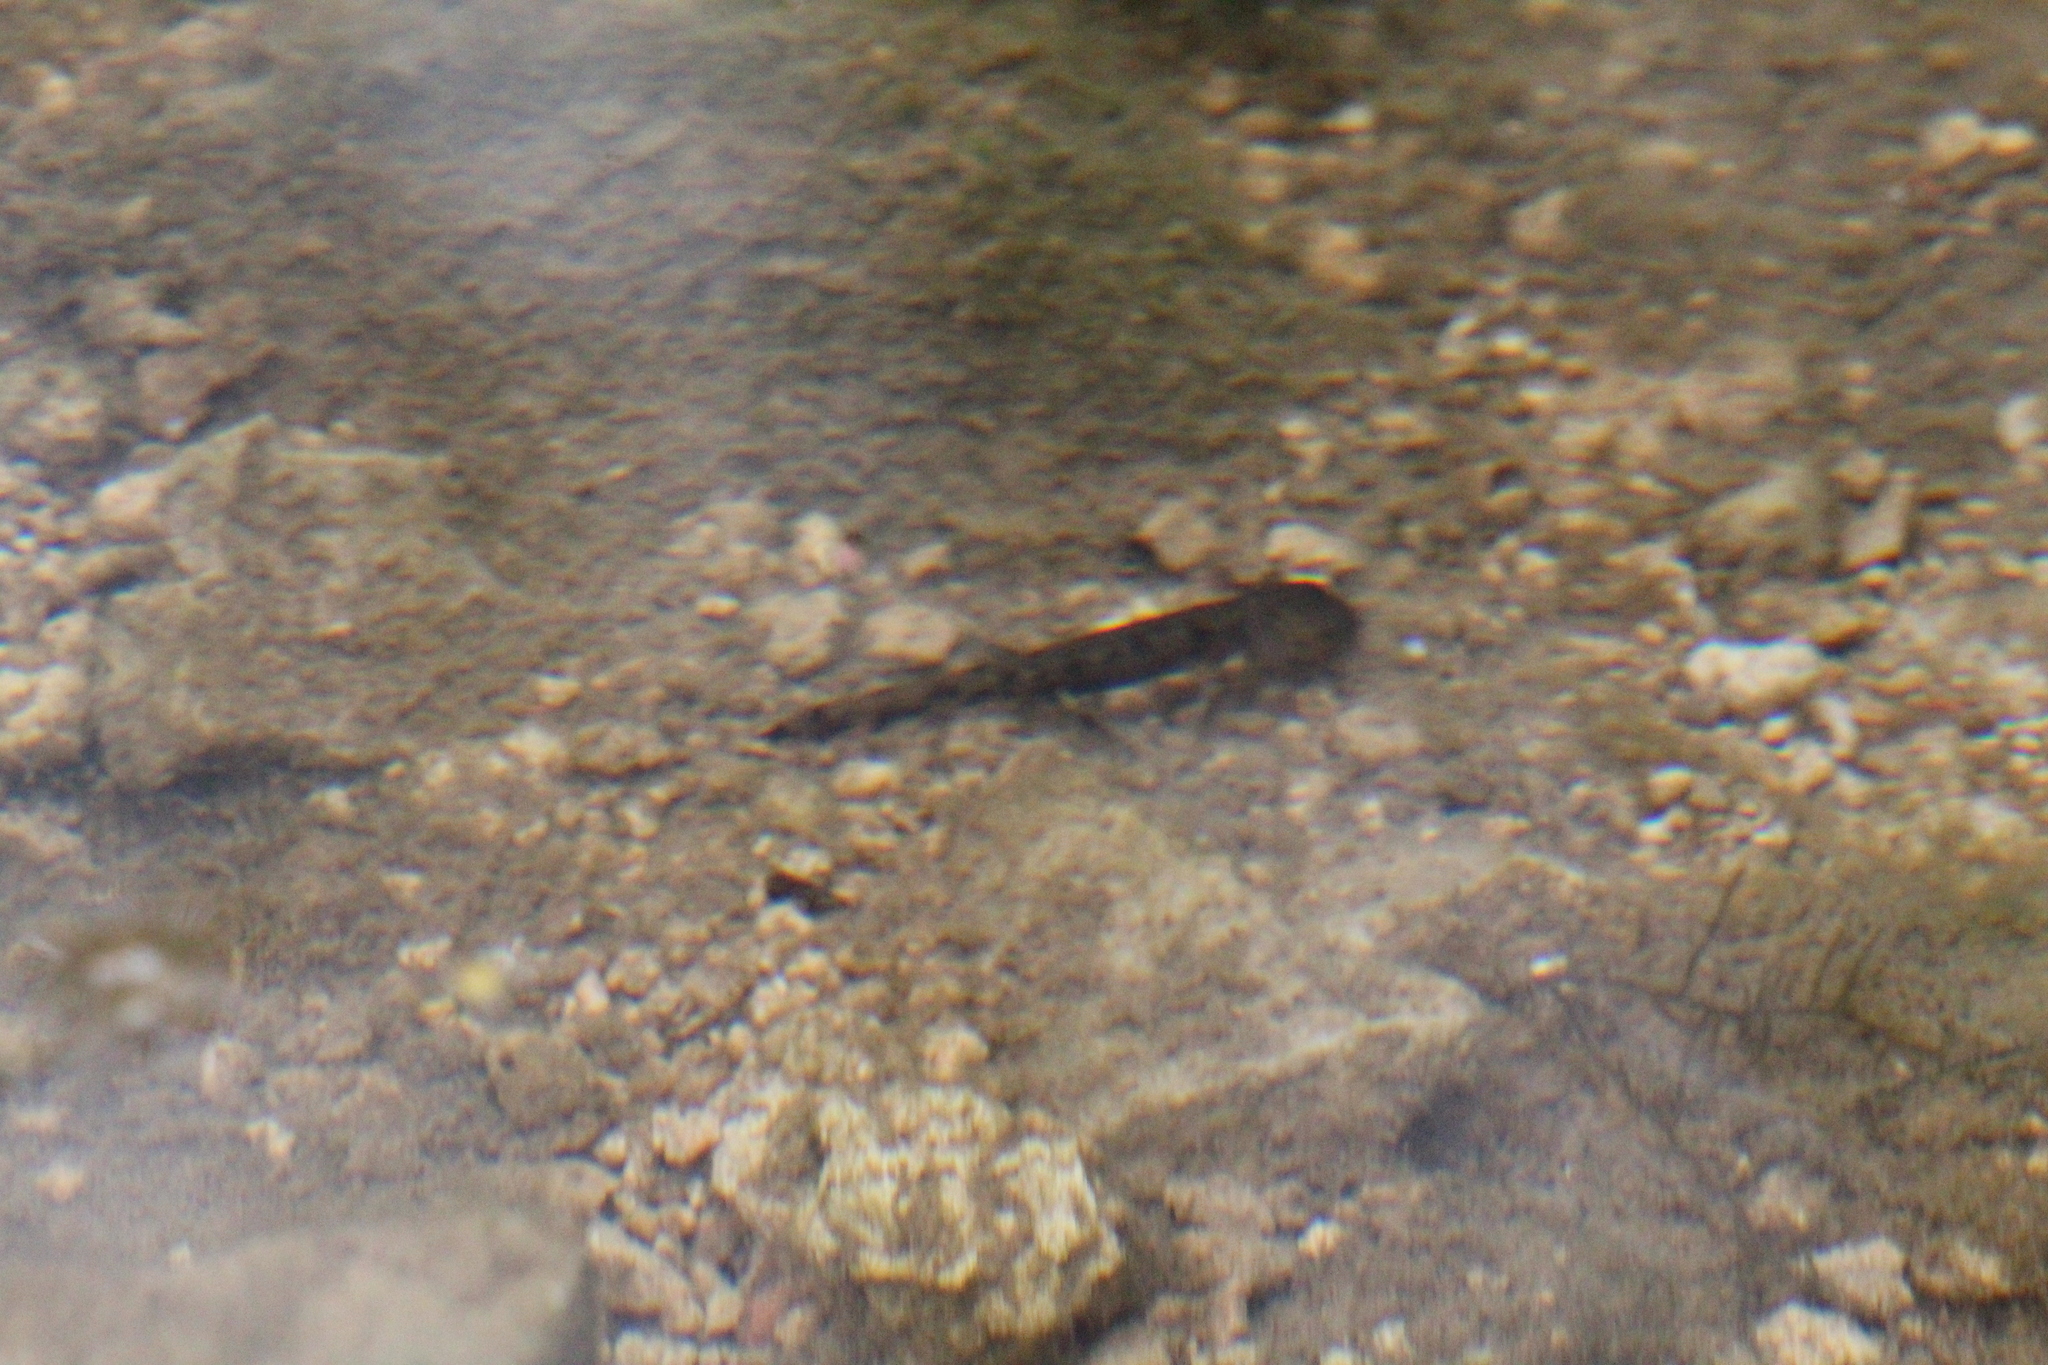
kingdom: Animalia
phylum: Chordata
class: Amphibia
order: Caudata
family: Salamandridae
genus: Salamandra
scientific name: Salamandra salamandra
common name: Fire salamander
